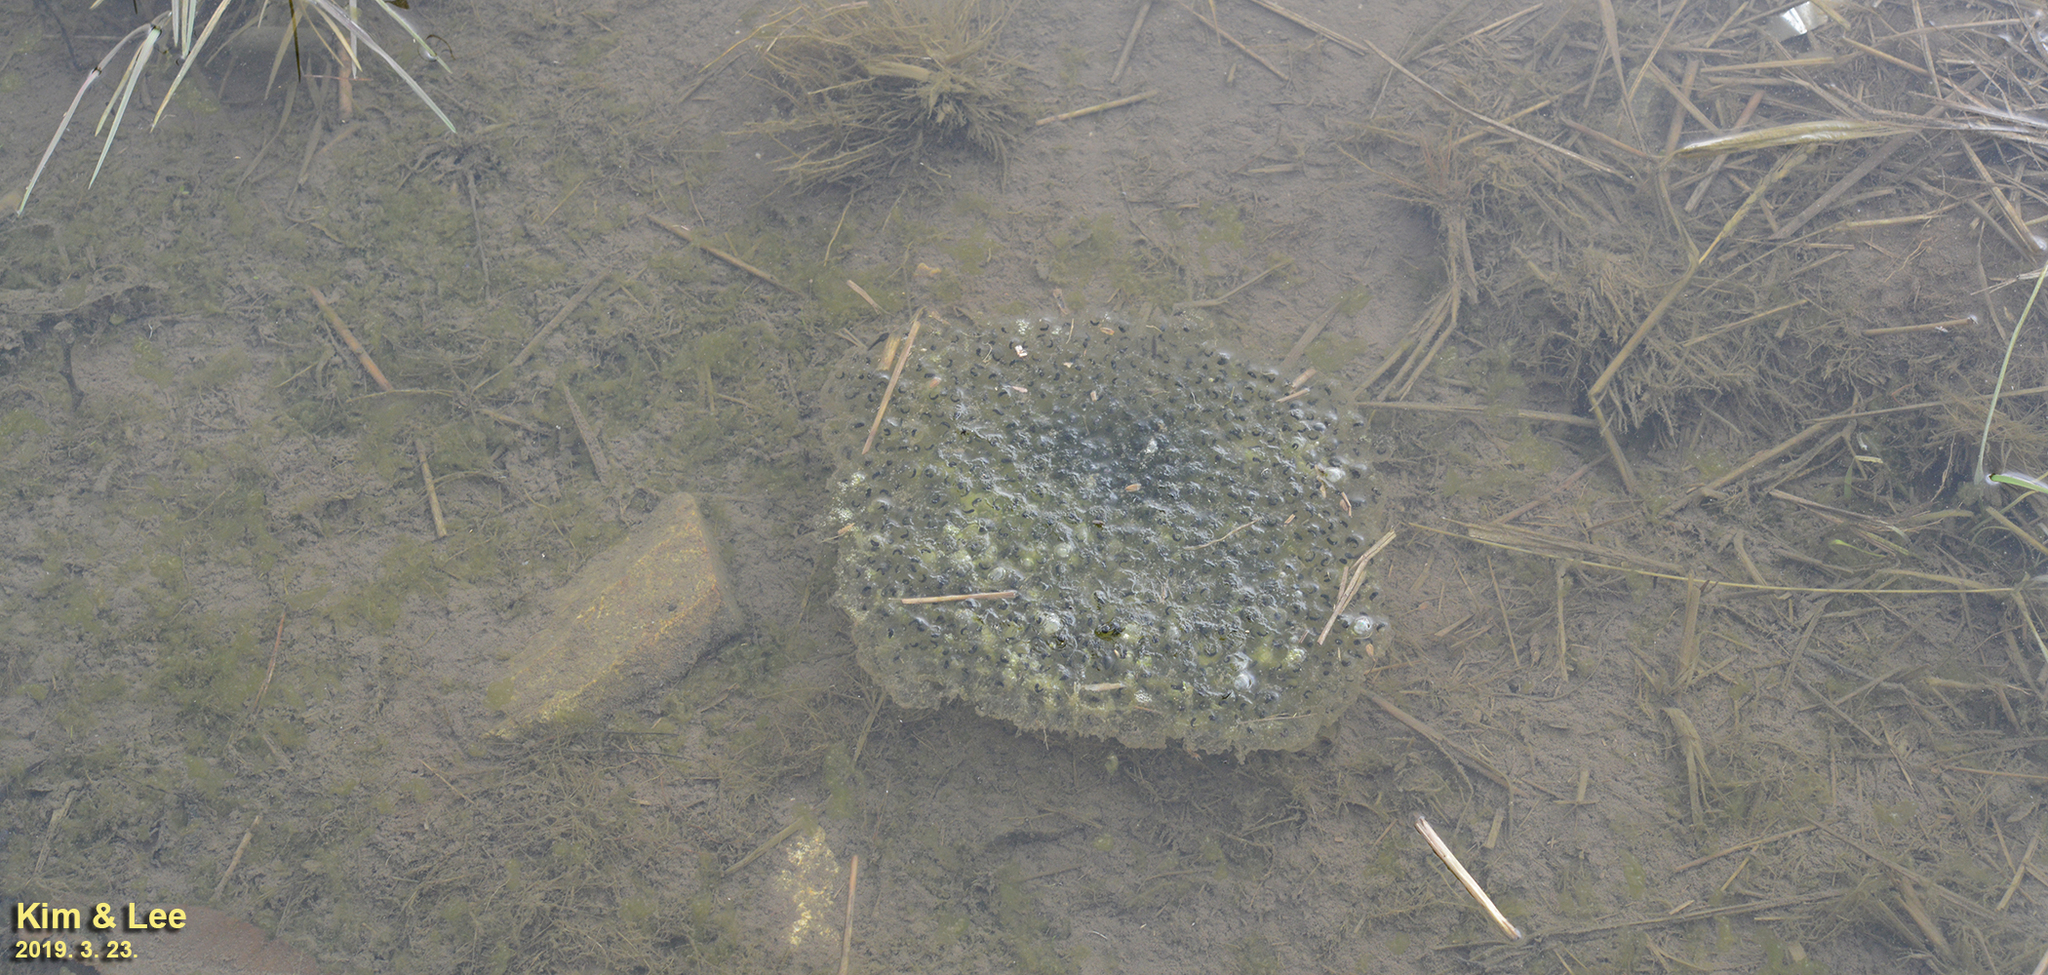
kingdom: Animalia
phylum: Chordata
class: Amphibia
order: Anura
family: Ranidae
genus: Rana
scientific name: Rana uenoi
